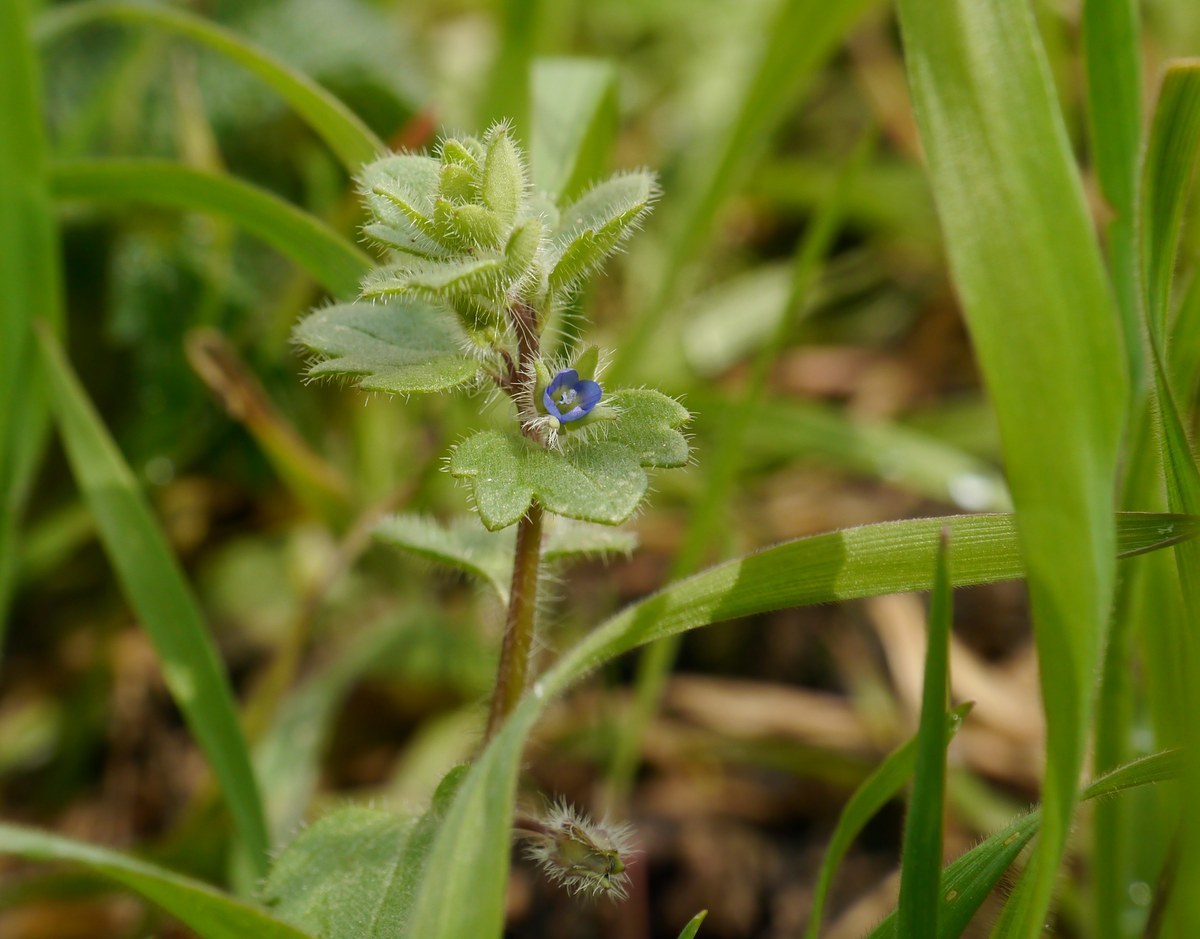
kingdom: Plantae
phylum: Tracheophyta
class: Magnoliopsida
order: Lamiales
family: Plantaginaceae
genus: Veronica
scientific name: Veronica hederifolia
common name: Ivy-leaved speedwell
